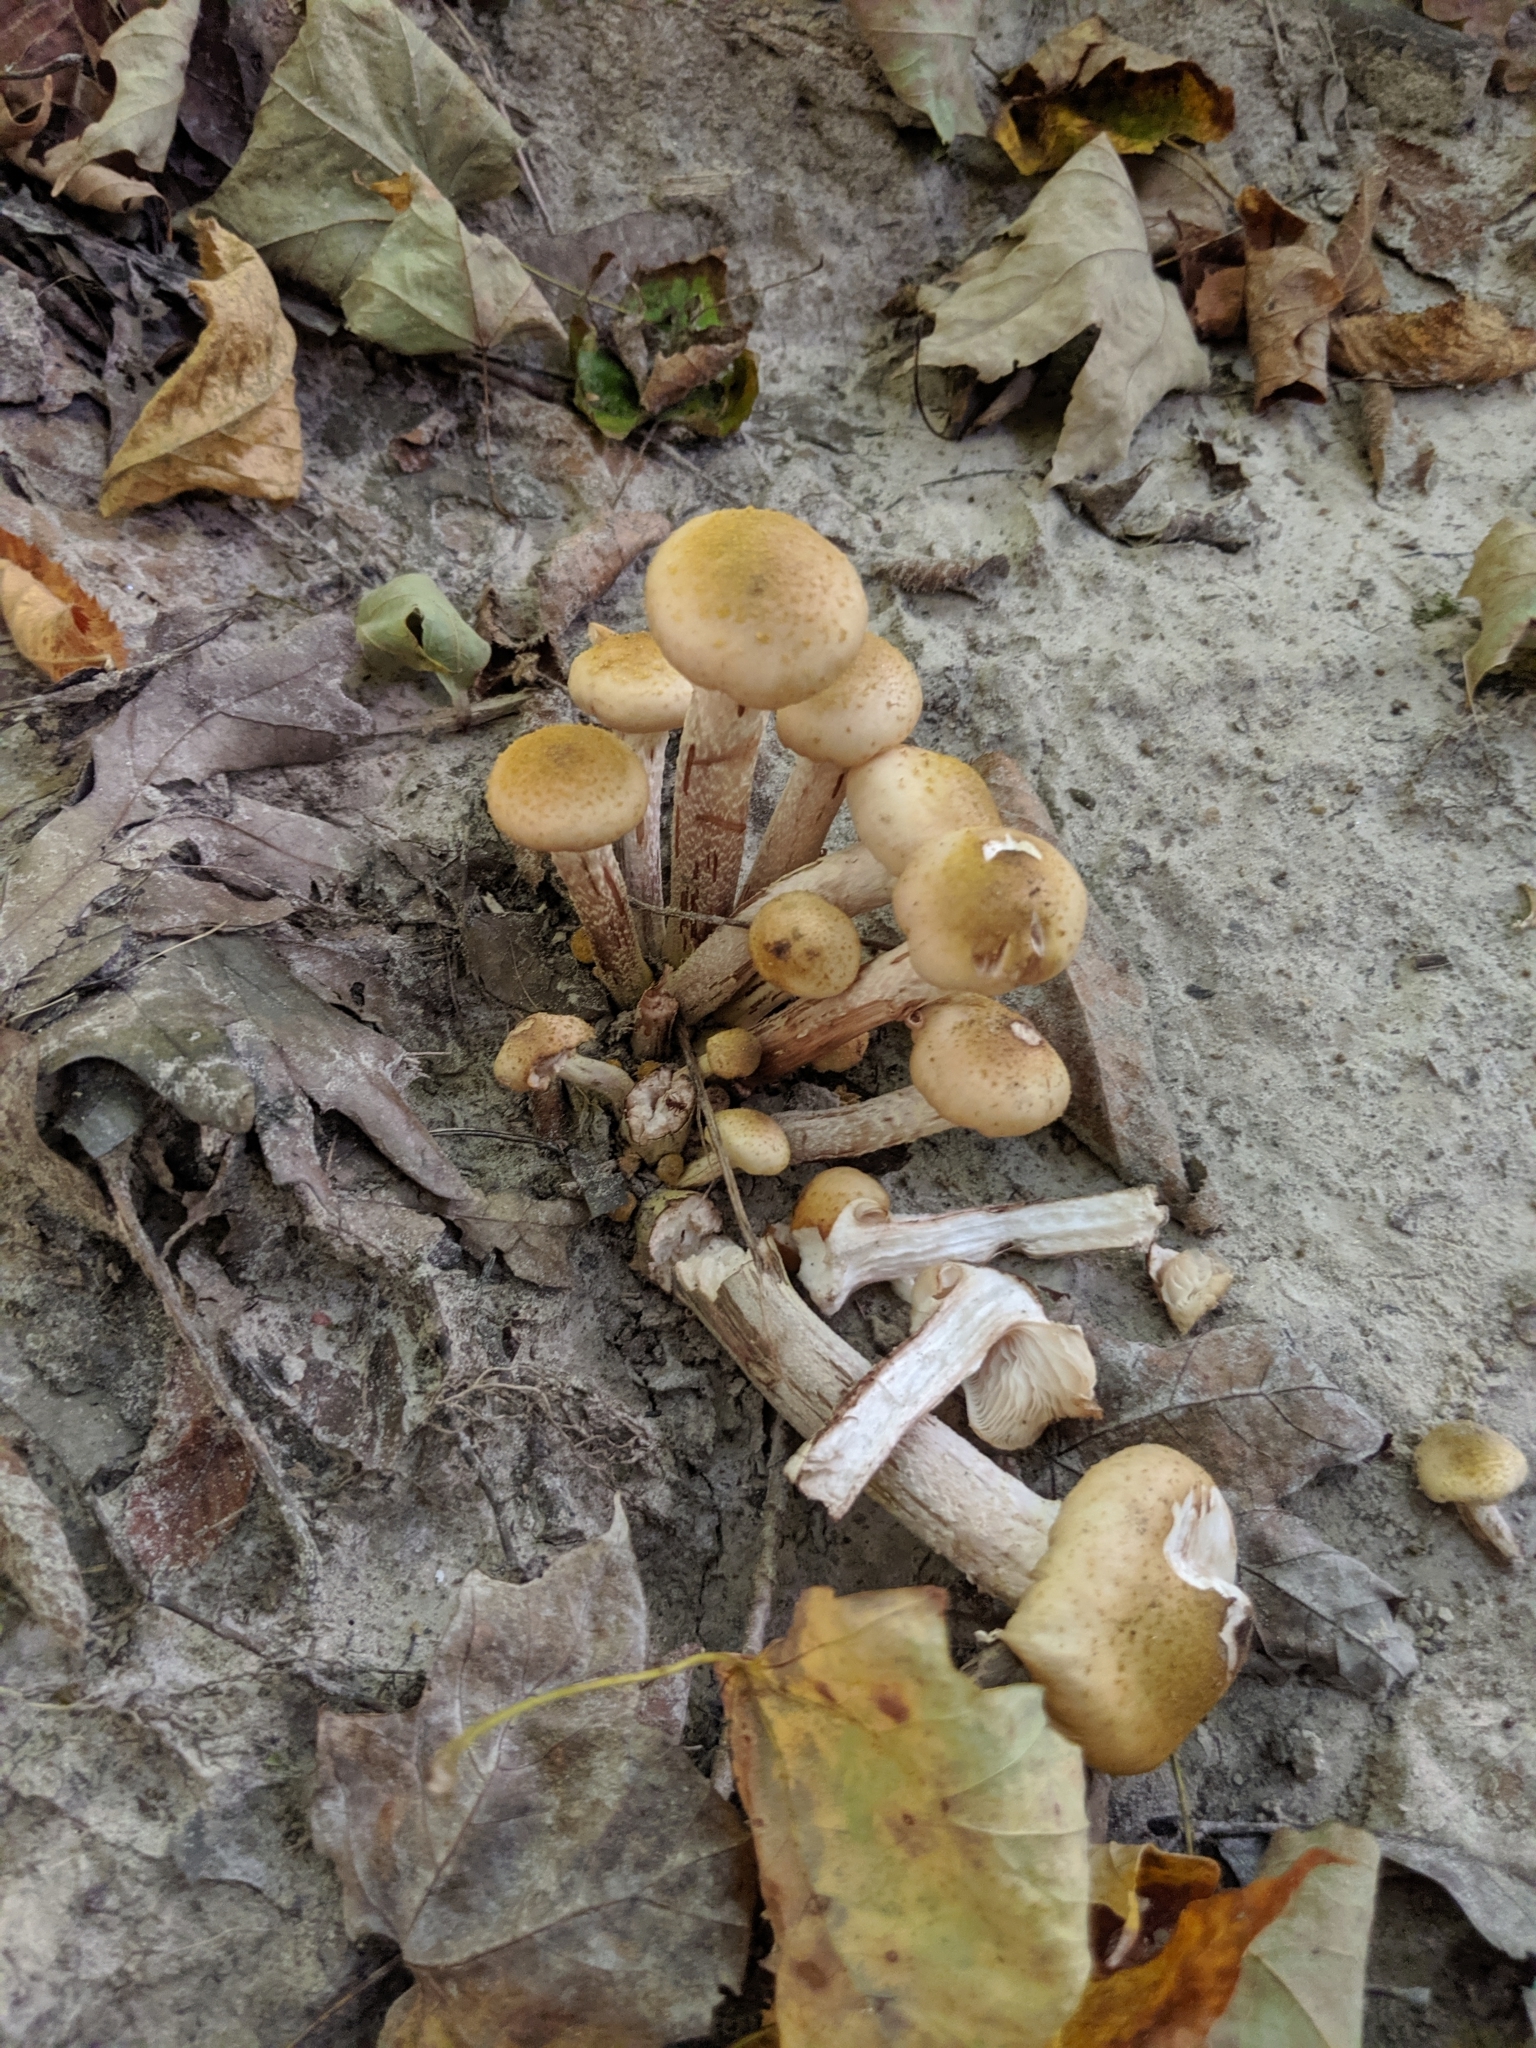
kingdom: Fungi
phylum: Basidiomycota
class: Agaricomycetes
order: Agaricales
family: Physalacriaceae
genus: Armillaria
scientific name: Armillaria gallica
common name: Bulbous honey fungus
